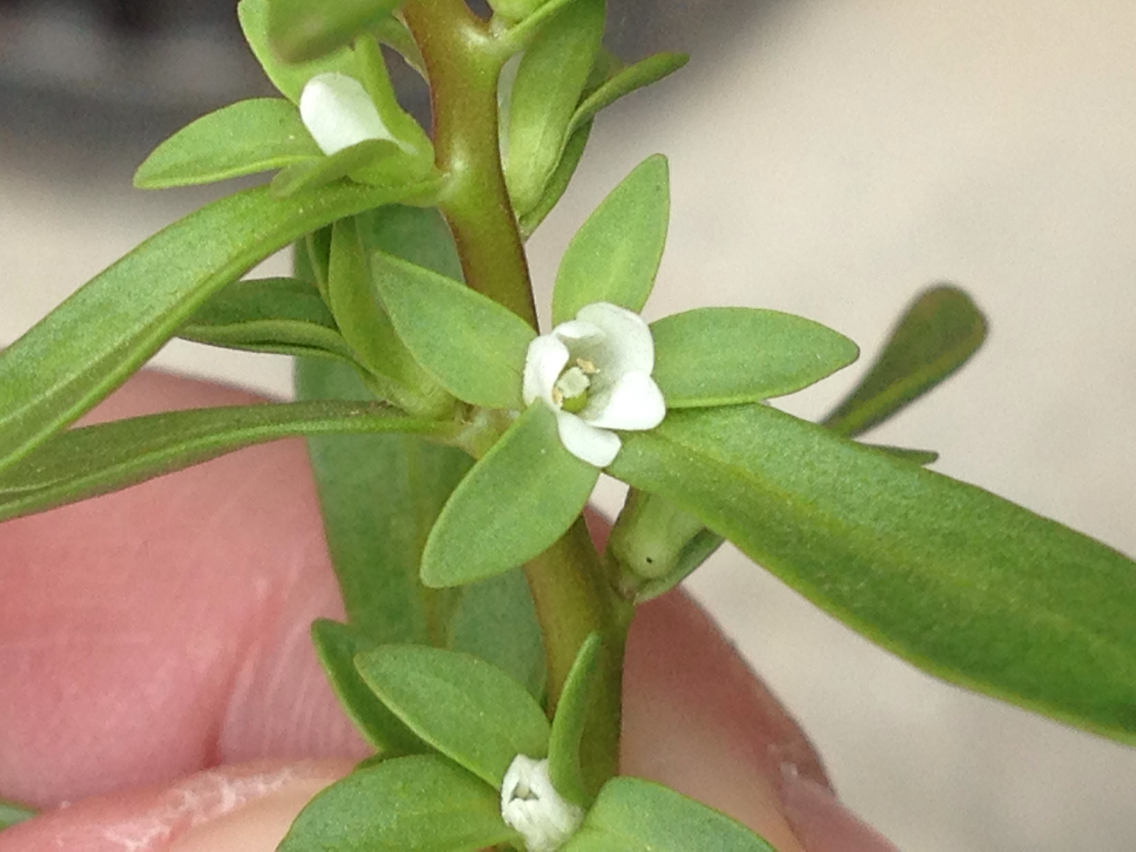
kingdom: Plantae
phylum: Tracheophyta
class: Magnoliopsida
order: Lamiales
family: Plantaginaceae
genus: Veronica
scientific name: Veronica peregrina
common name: Neckweed
